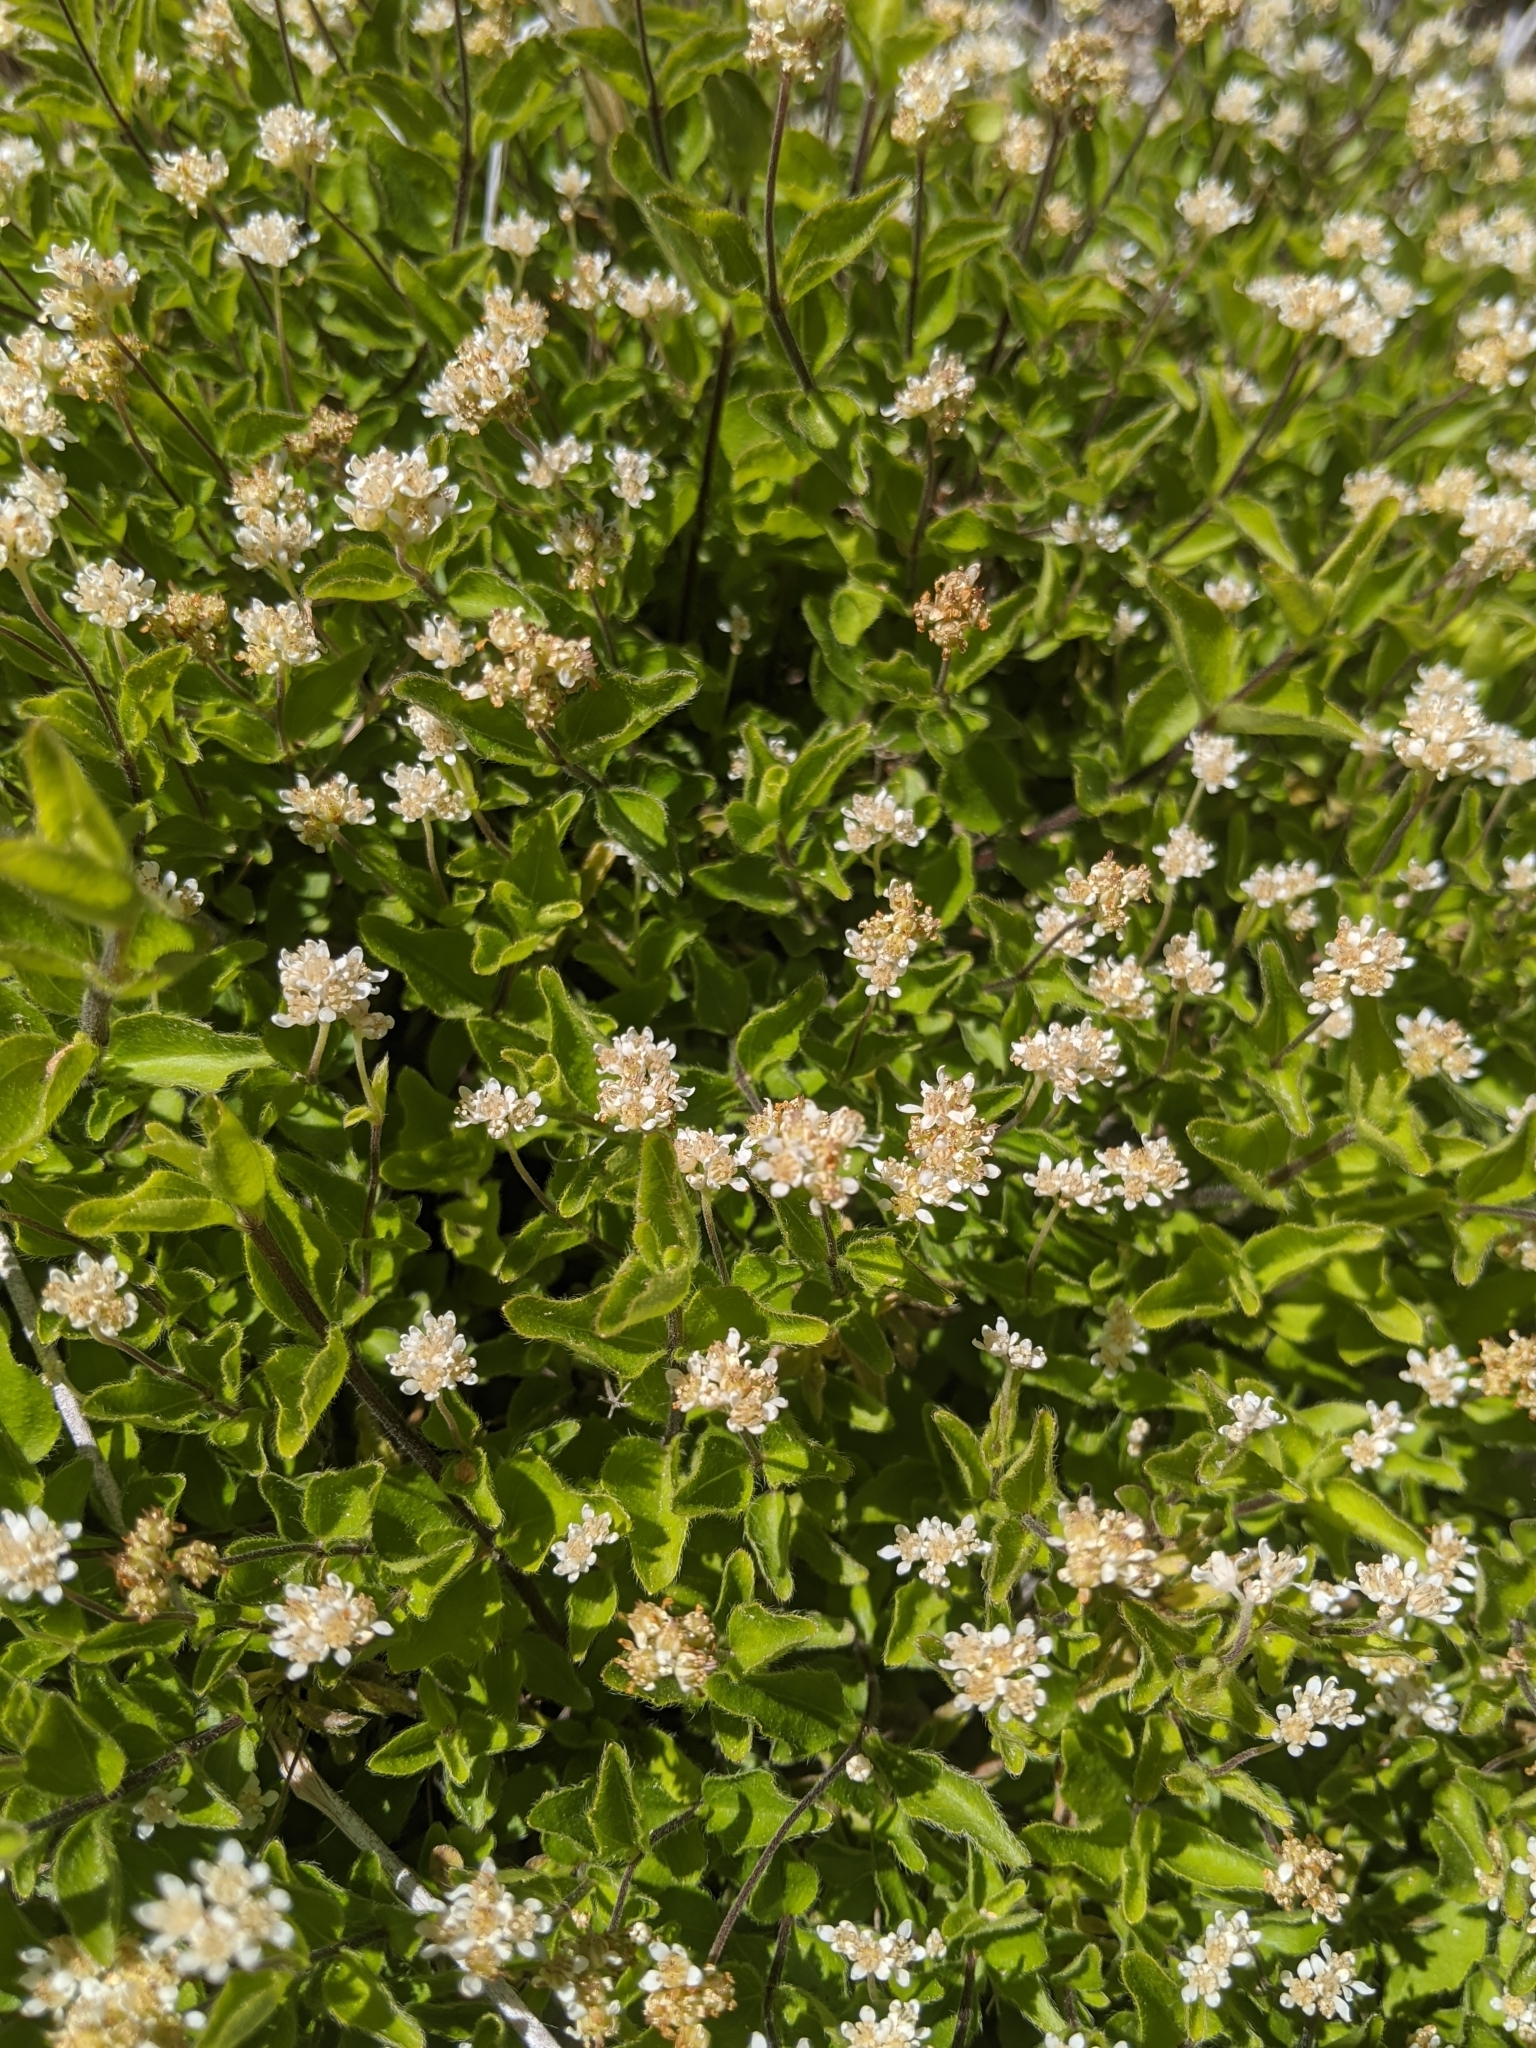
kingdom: Plantae
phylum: Tracheophyta
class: Magnoliopsida
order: Cornales
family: Hydrangeaceae
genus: Whipplea
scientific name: Whipplea modesta
